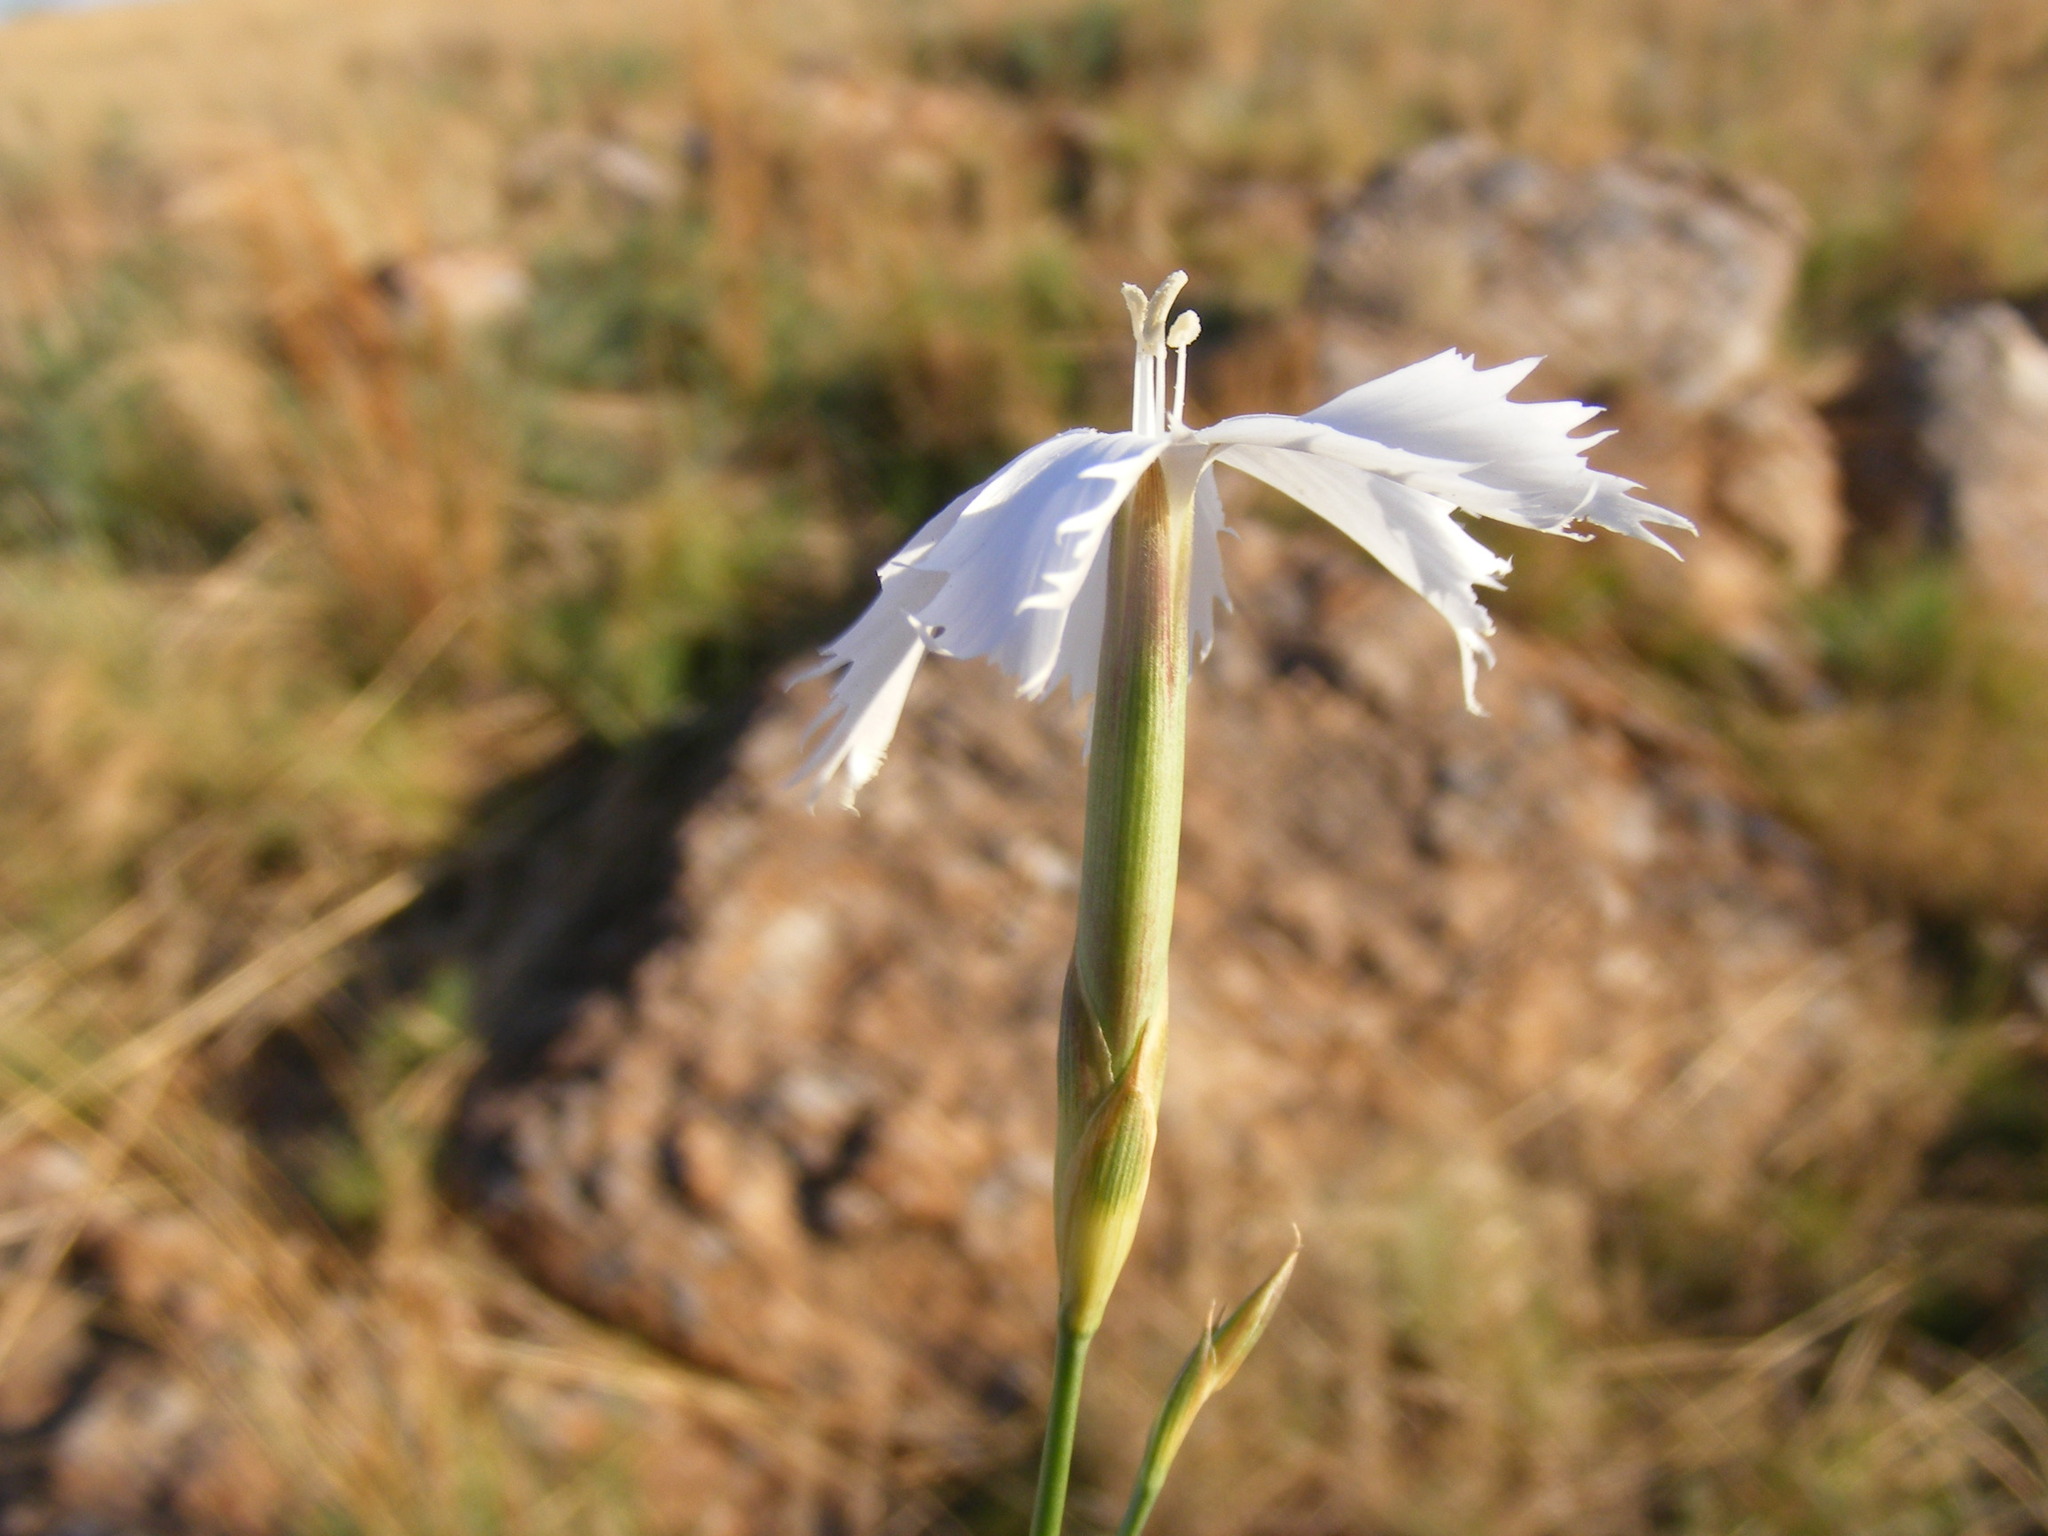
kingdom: Plantae
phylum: Tracheophyta
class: Magnoliopsida
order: Caryophyllales
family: Caryophyllaceae
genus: Dianthus
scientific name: Dianthus mooiensis
